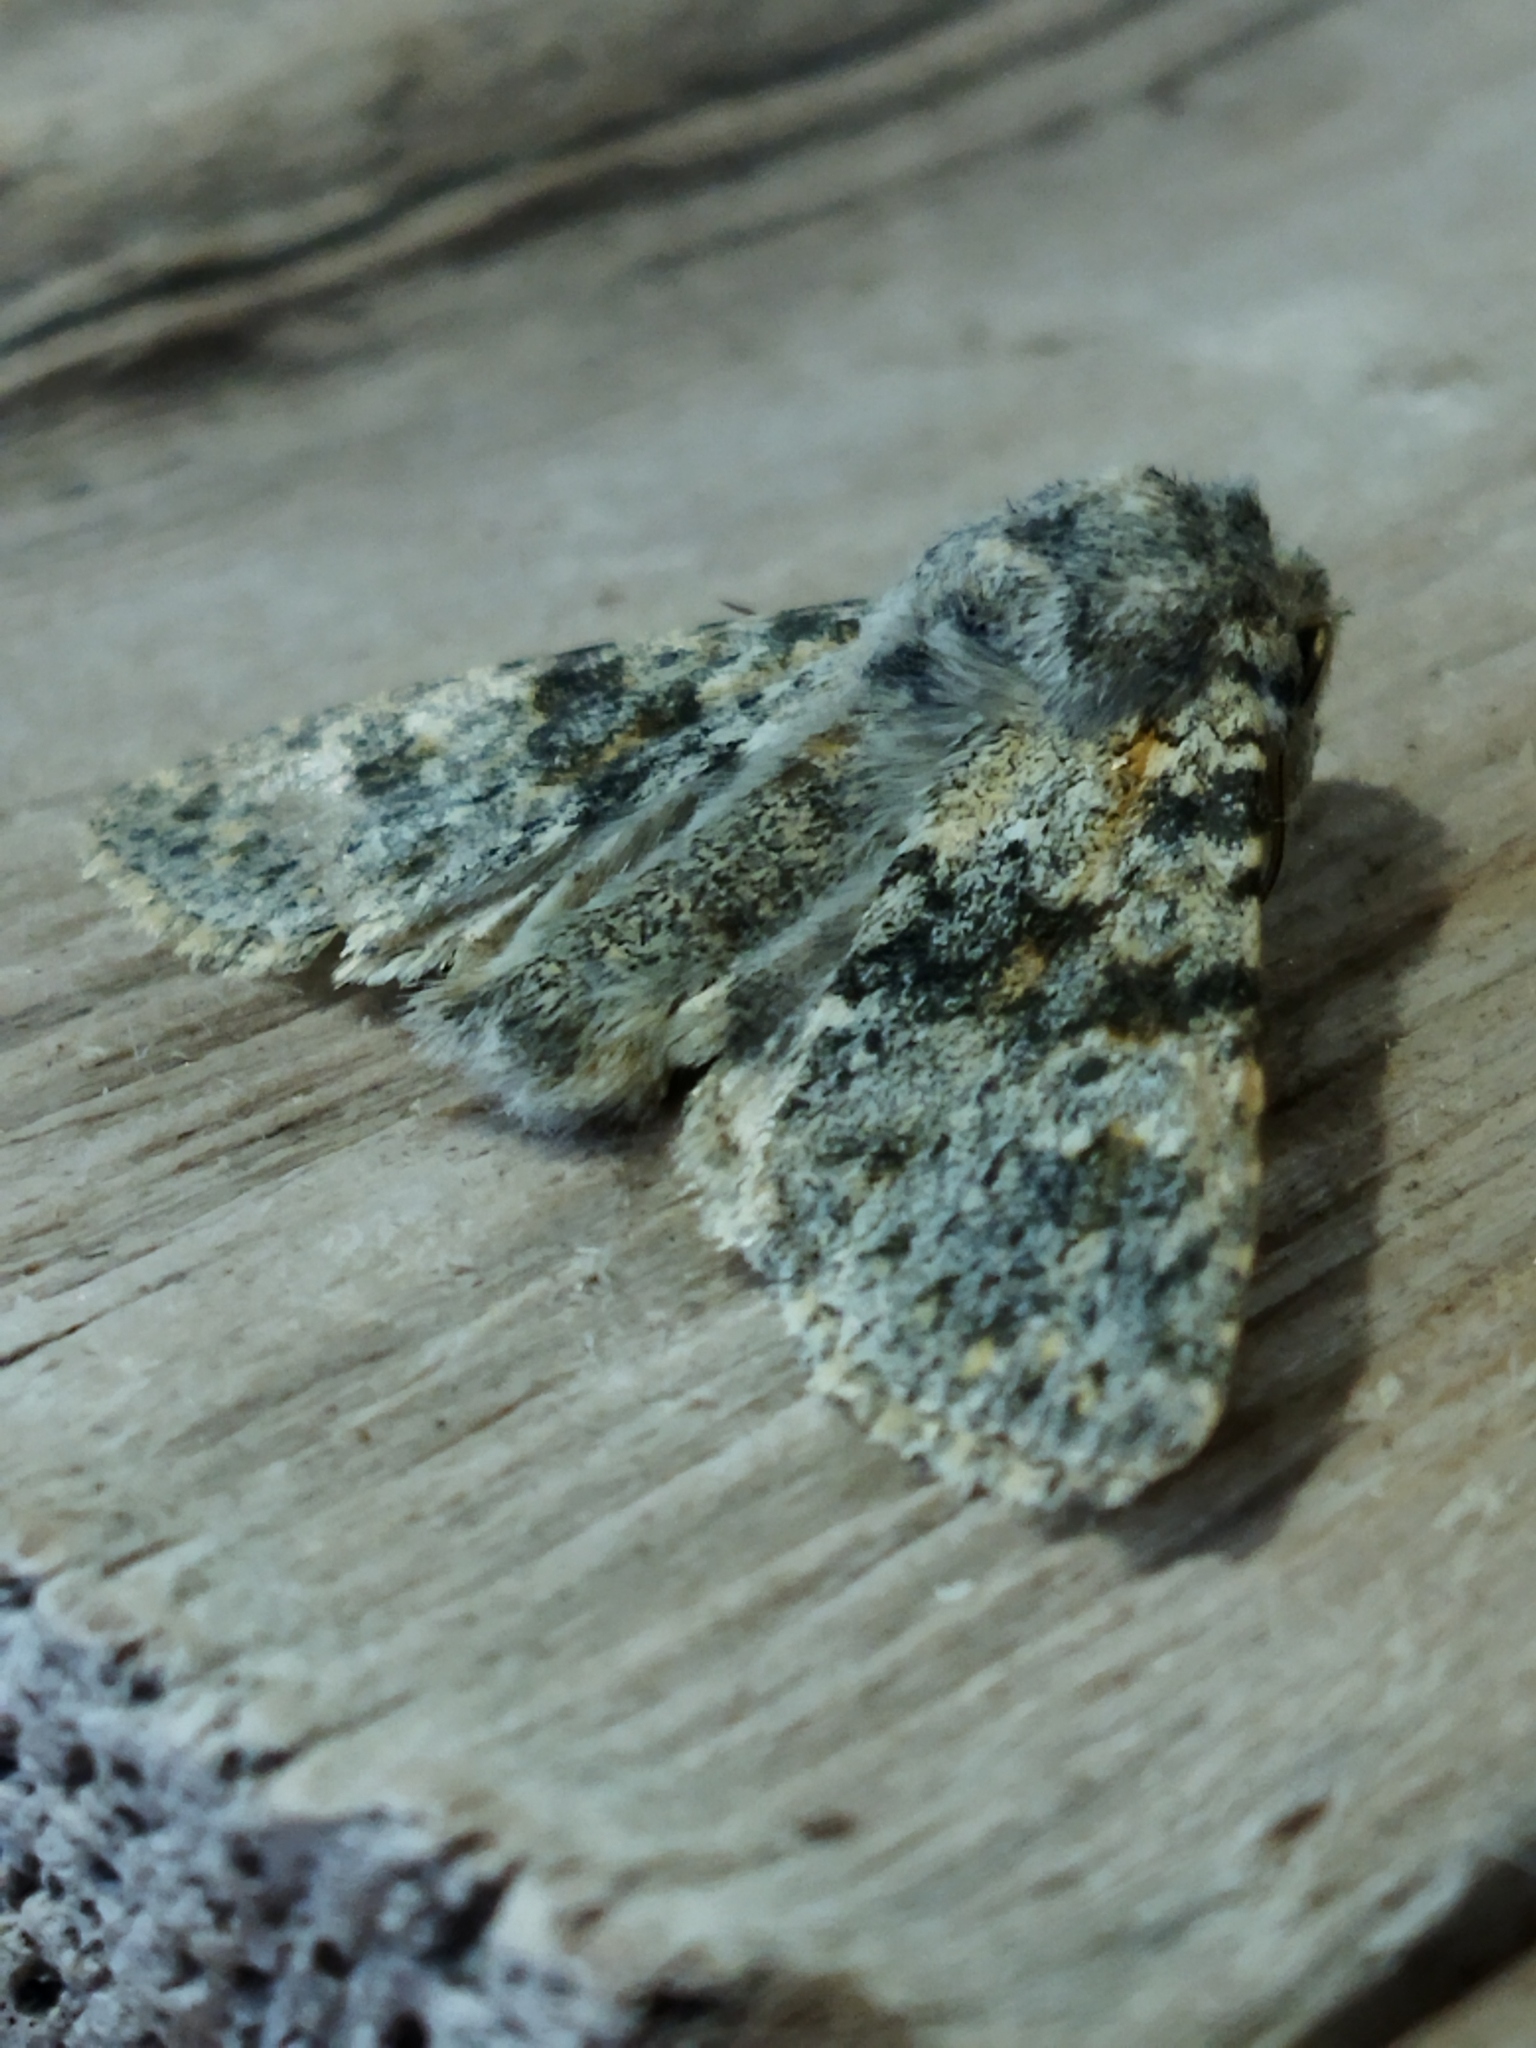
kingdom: Animalia
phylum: Arthropoda
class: Insecta
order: Lepidoptera
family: Noctuidae
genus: Polymixis
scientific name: Polymixis rufocincta
